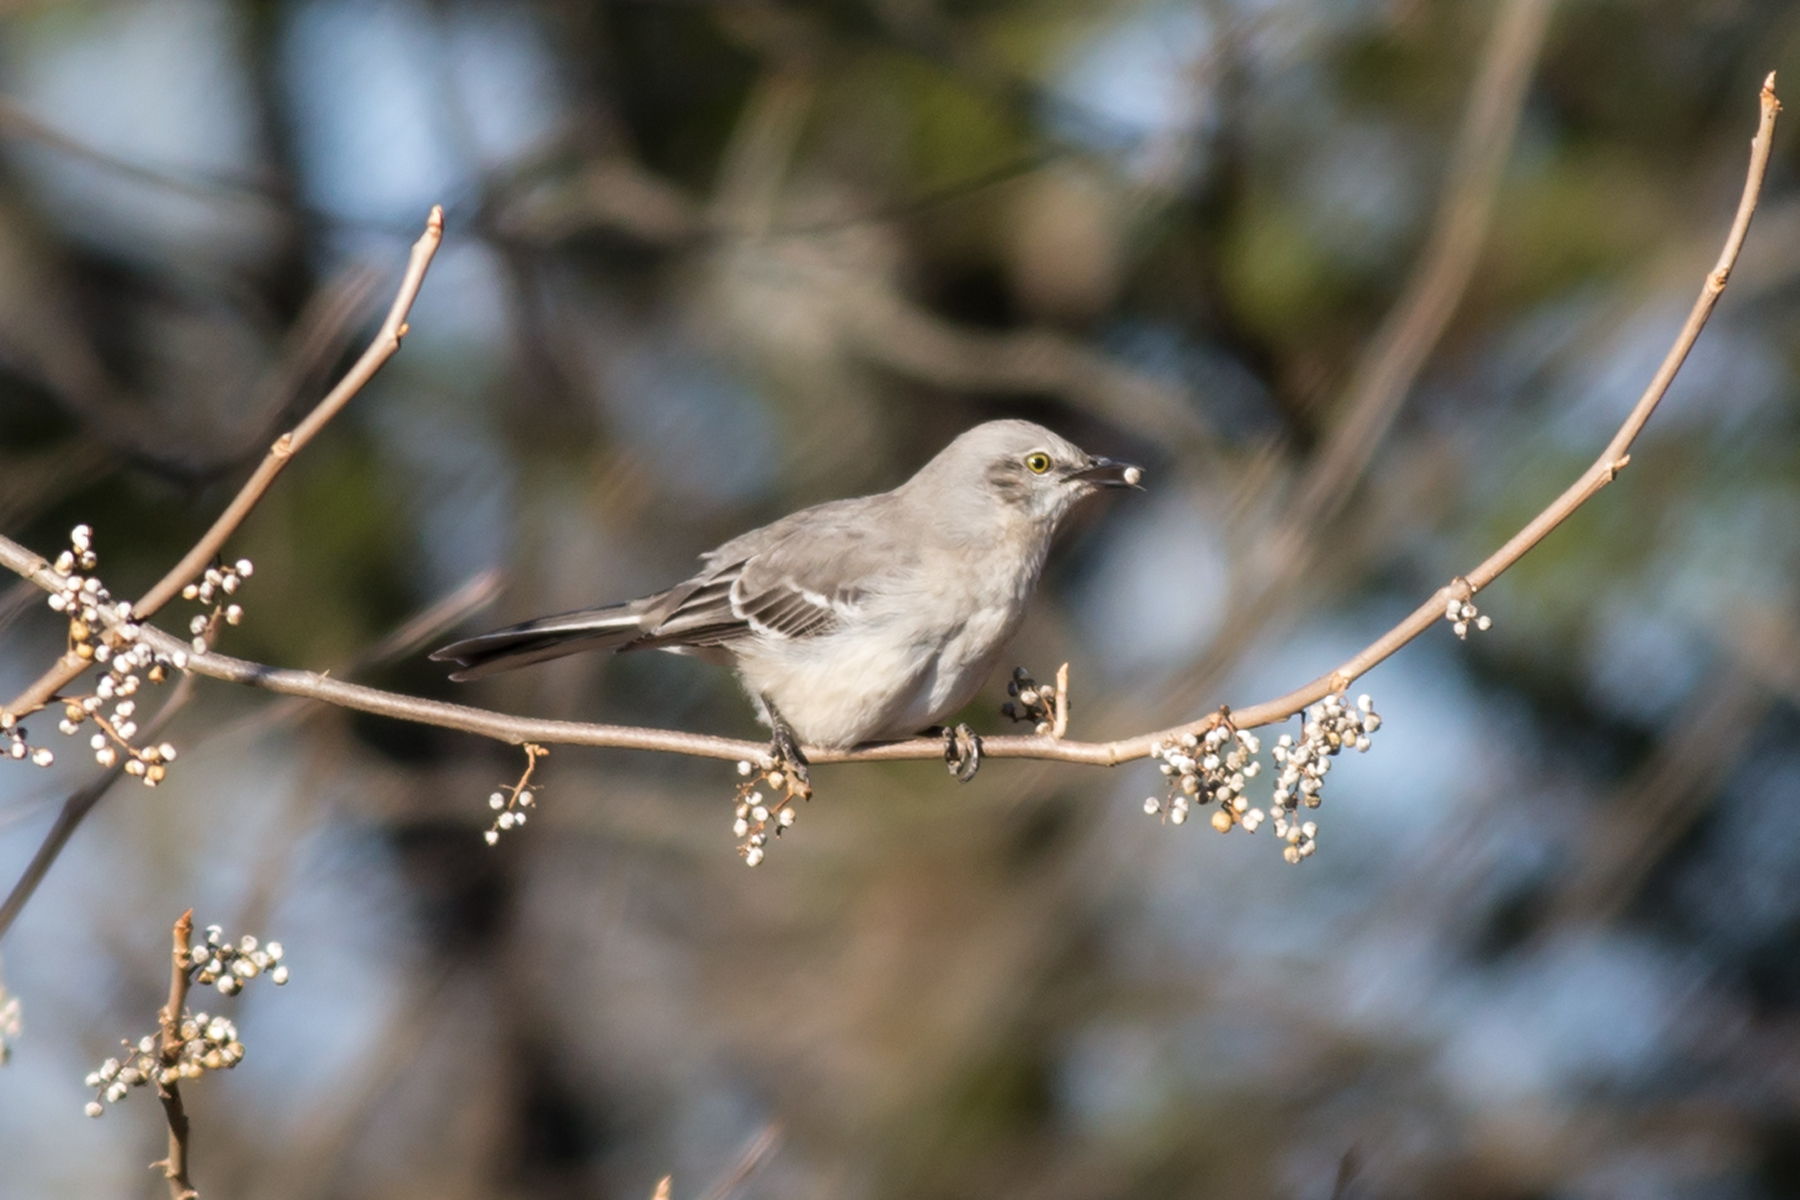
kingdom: Animalia
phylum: Chordata
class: Aves
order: Passeriformes
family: Mimidae
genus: Mimus
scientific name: Mimus polyglottos
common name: Northern mockingbird
